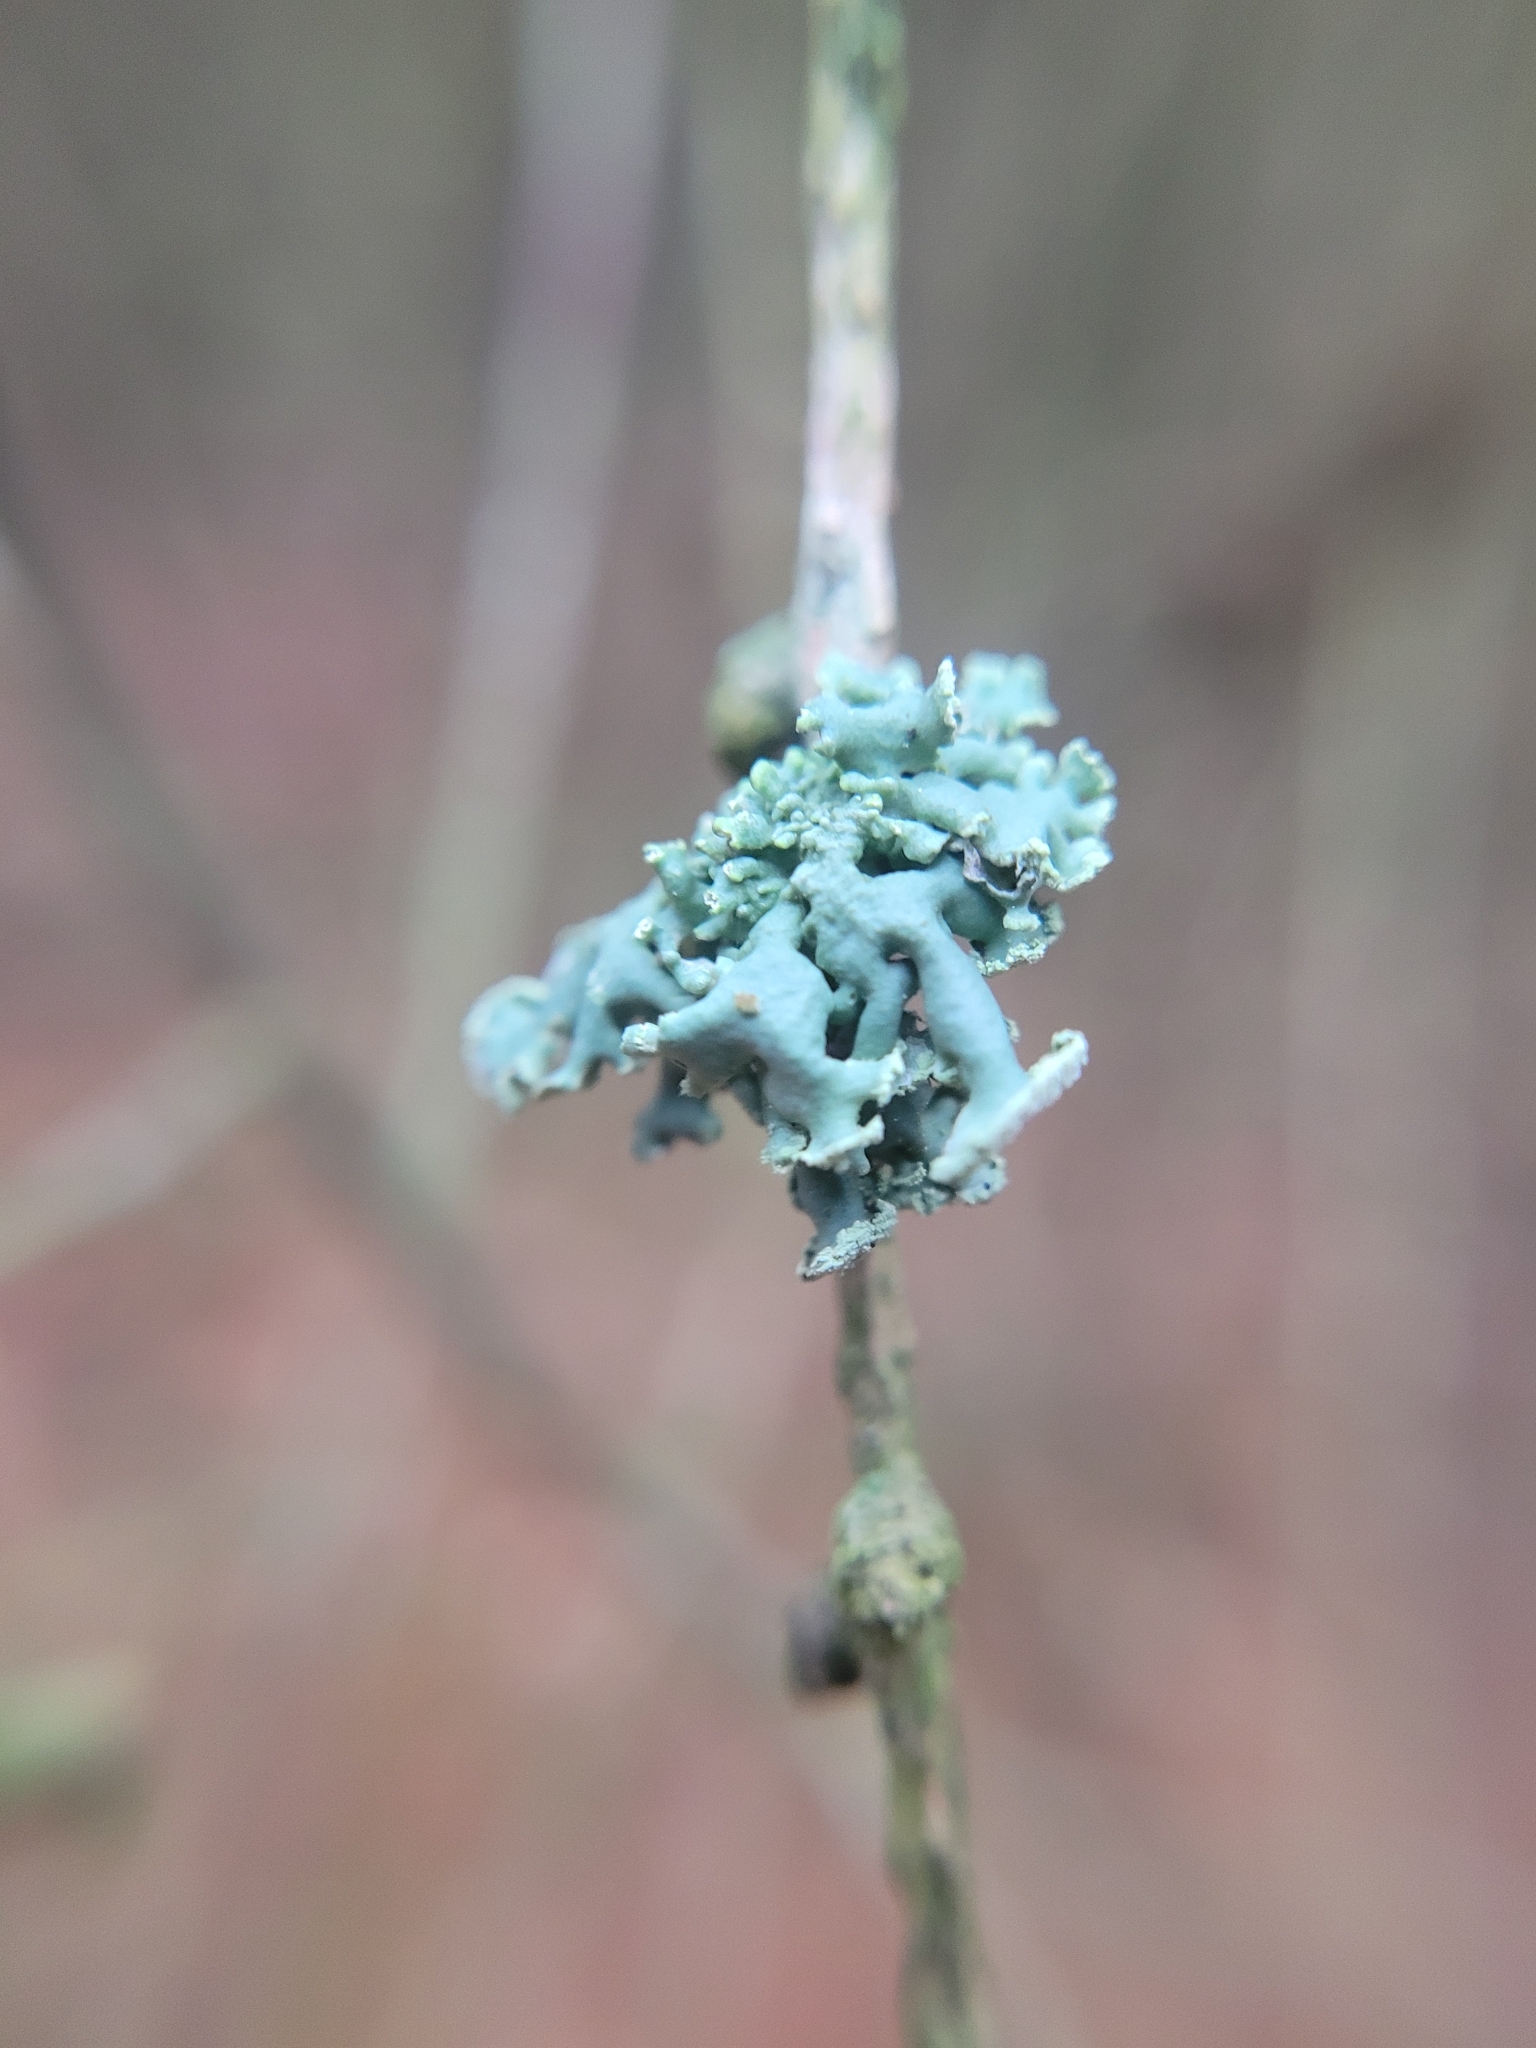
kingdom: Fungi
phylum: Ascomycota
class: Lecanoromycetes
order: Lecanorales
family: Parmeliaceae
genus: Hypogymnia
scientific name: Hypogymnia physodes
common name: Dark crottle
